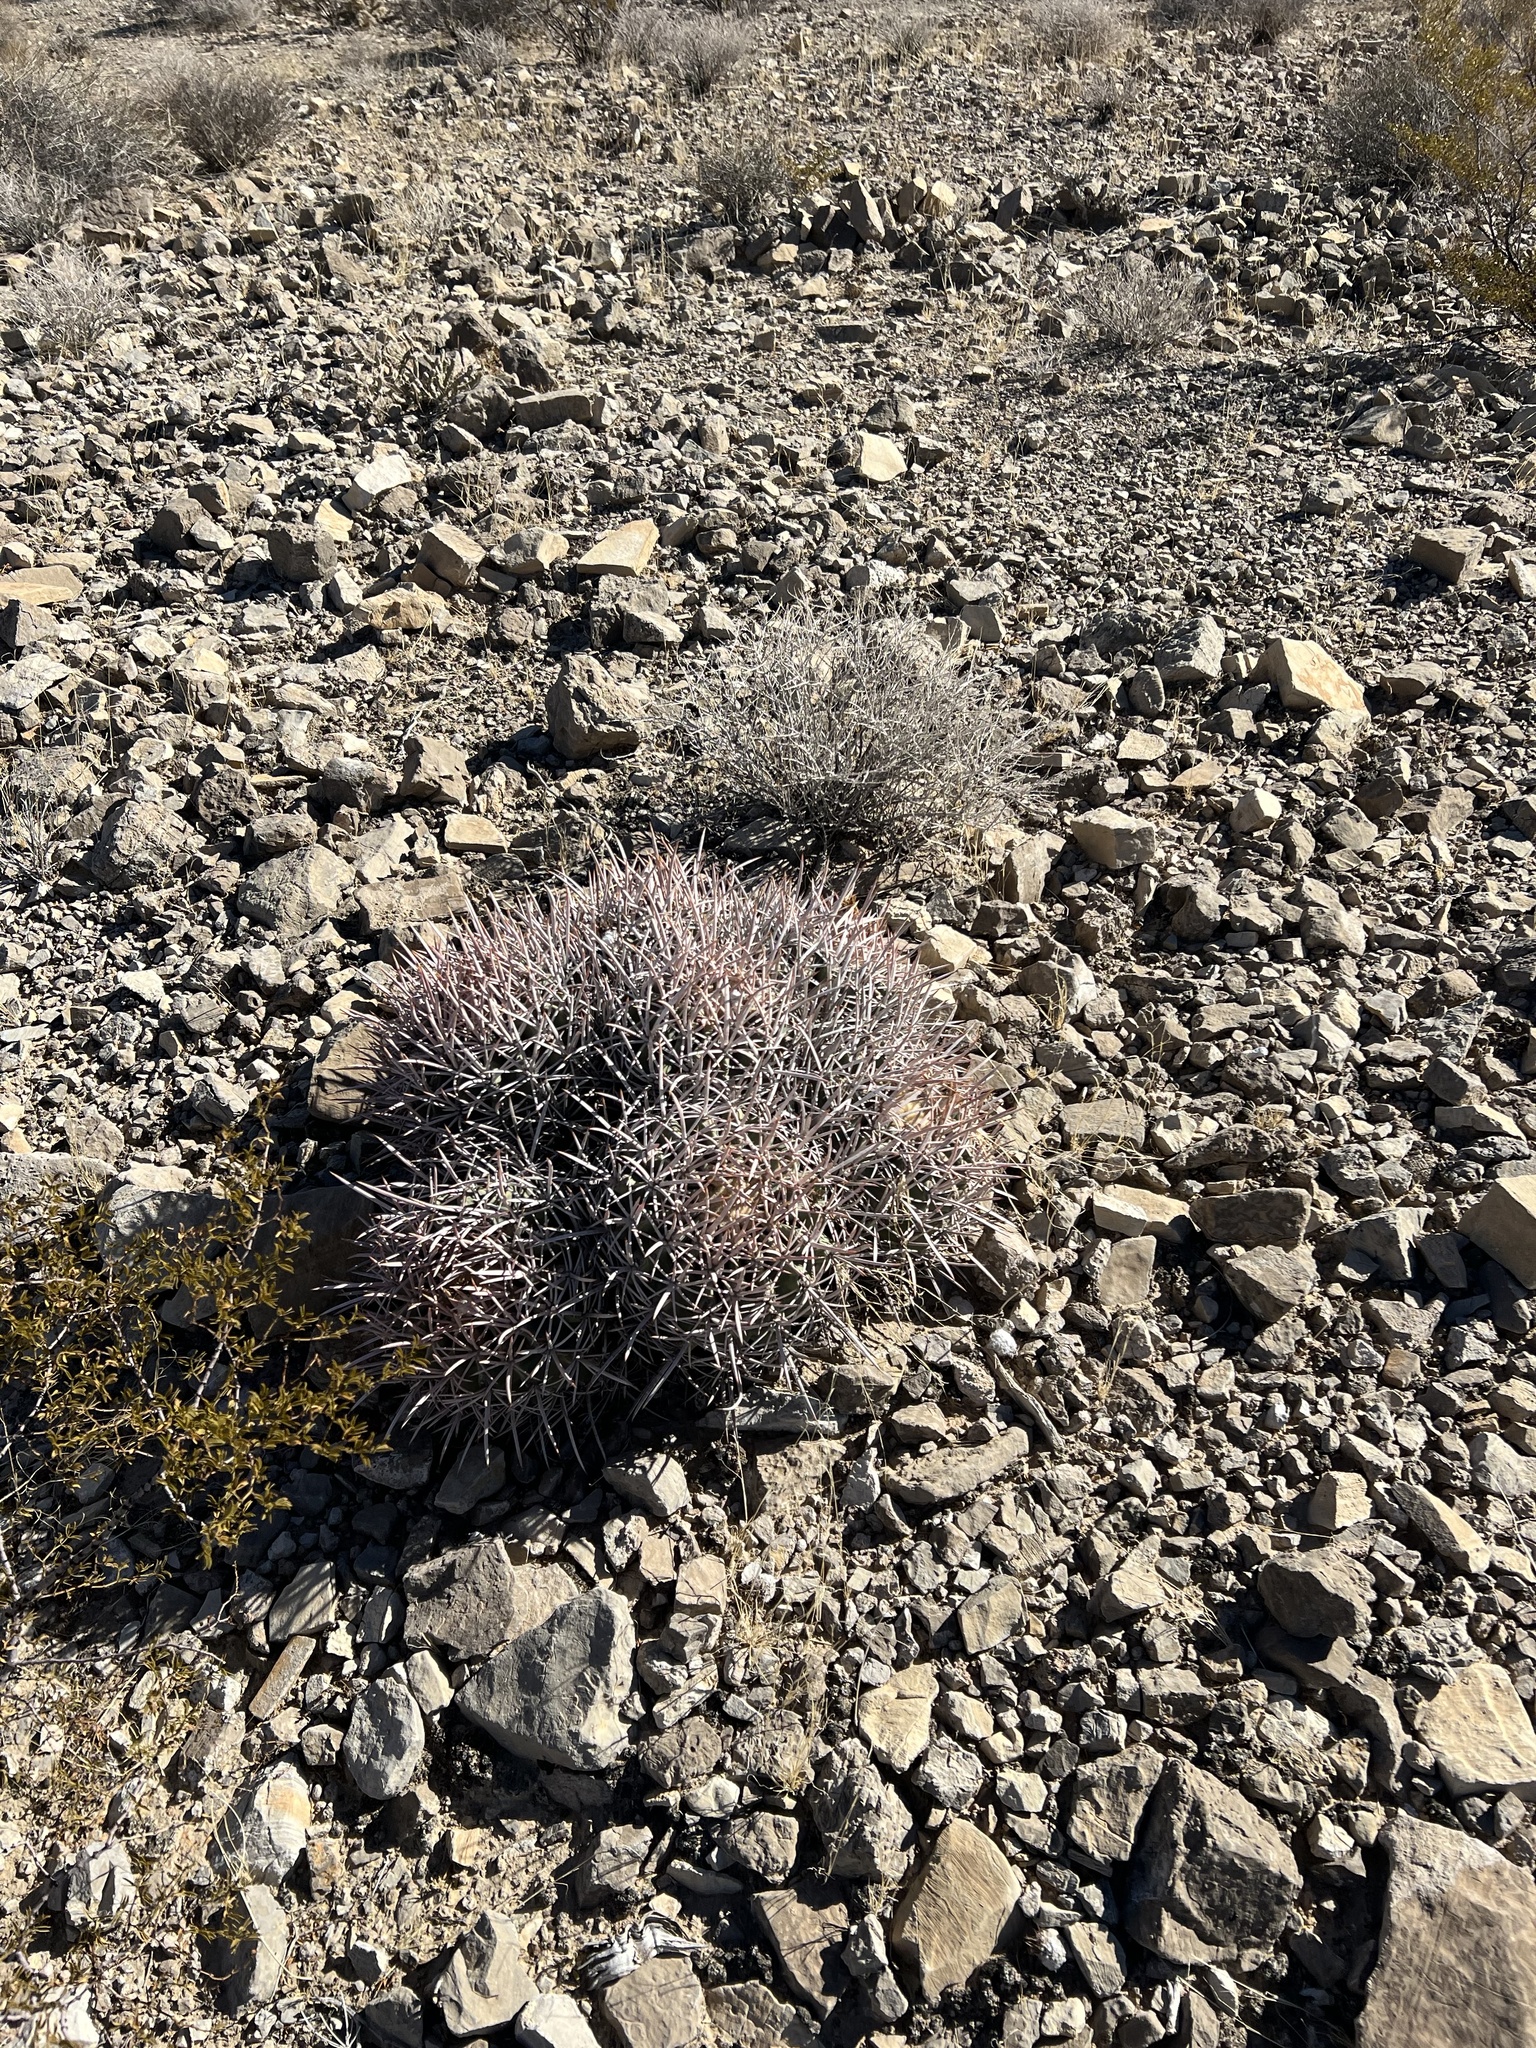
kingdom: Plantae
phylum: Tracheophyta
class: Magnoliopsida
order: Caryophyllales
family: Cactaceae
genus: Echinocactus
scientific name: Echinocactus polycephalus
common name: Cottontop cactus
